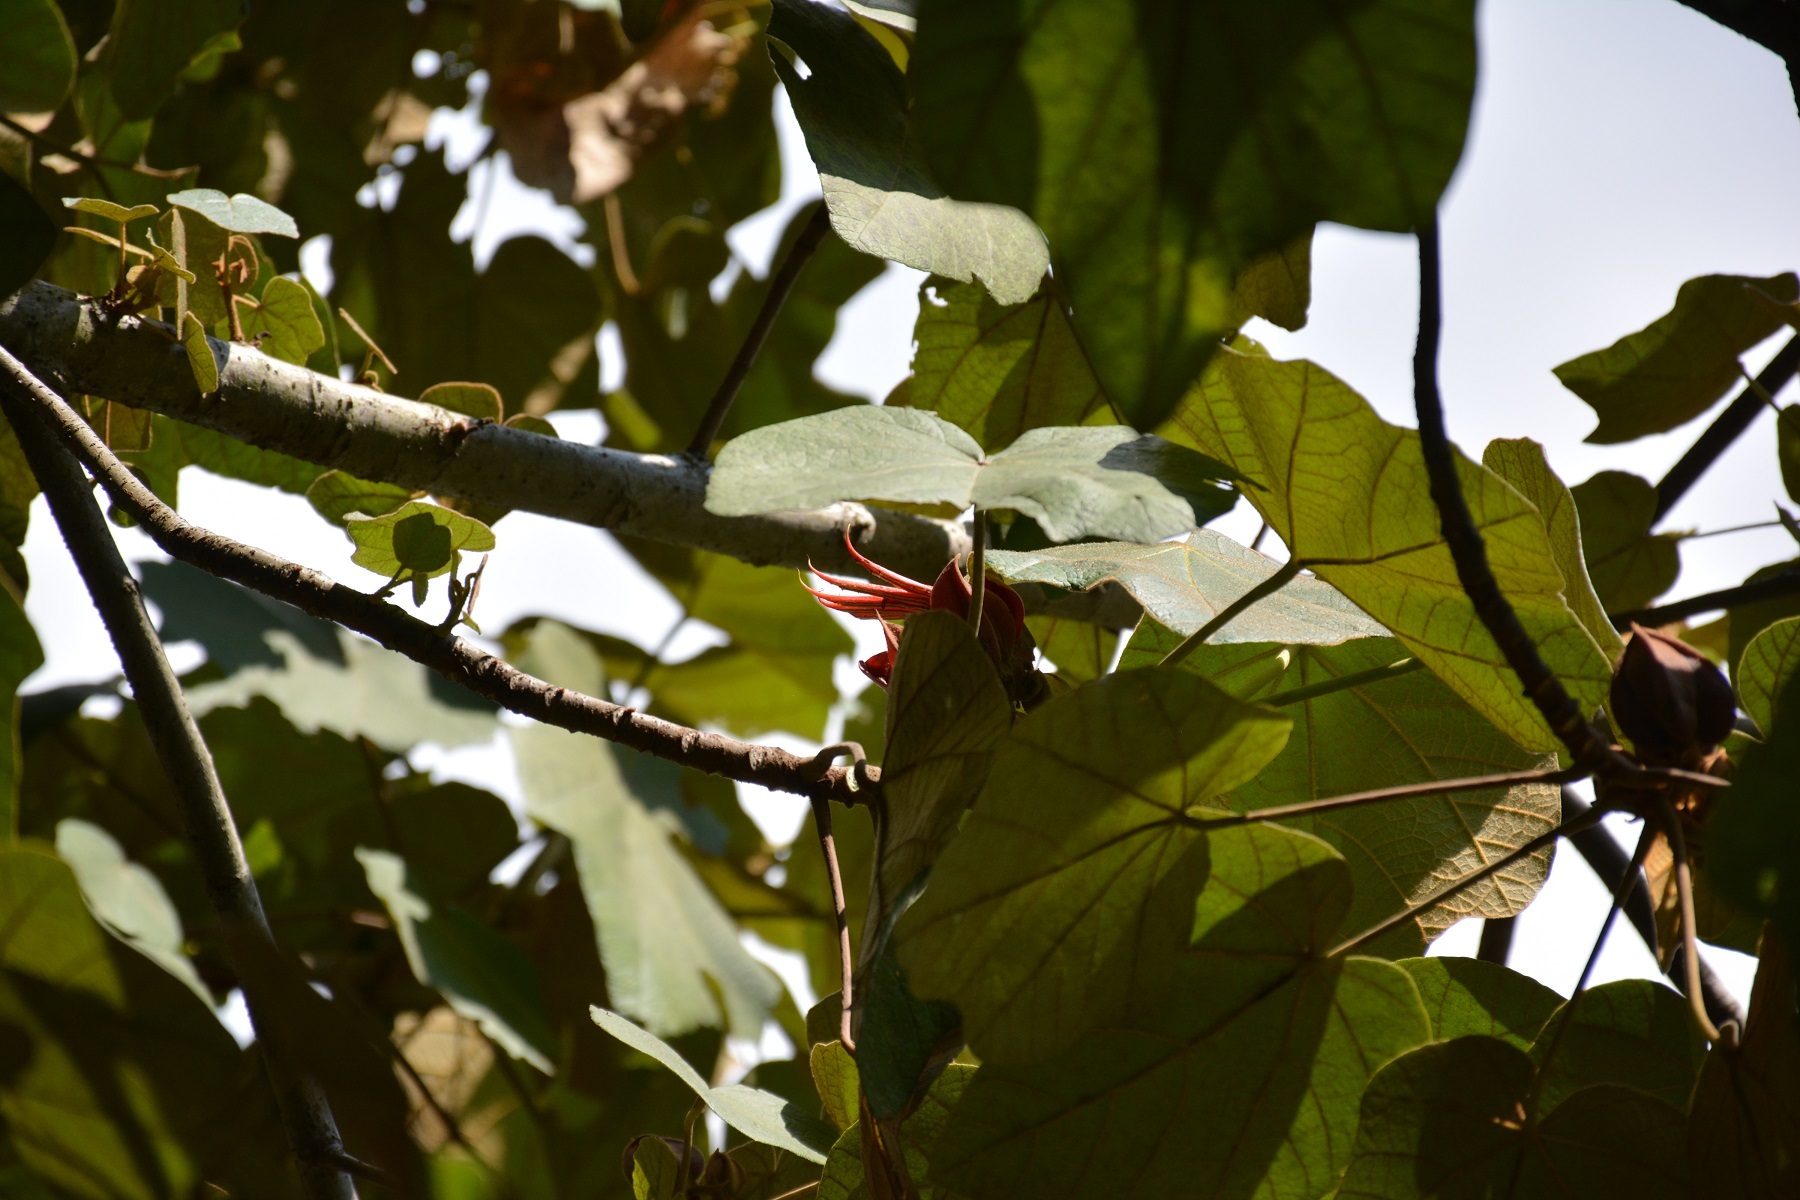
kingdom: Plantae
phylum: Tracheophyta
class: Magnoliopsida
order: Malvales
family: Malvaceae
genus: Chiranthodendron
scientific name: Chiranthodendron pentadactylon
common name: Mexican-hat-plant
